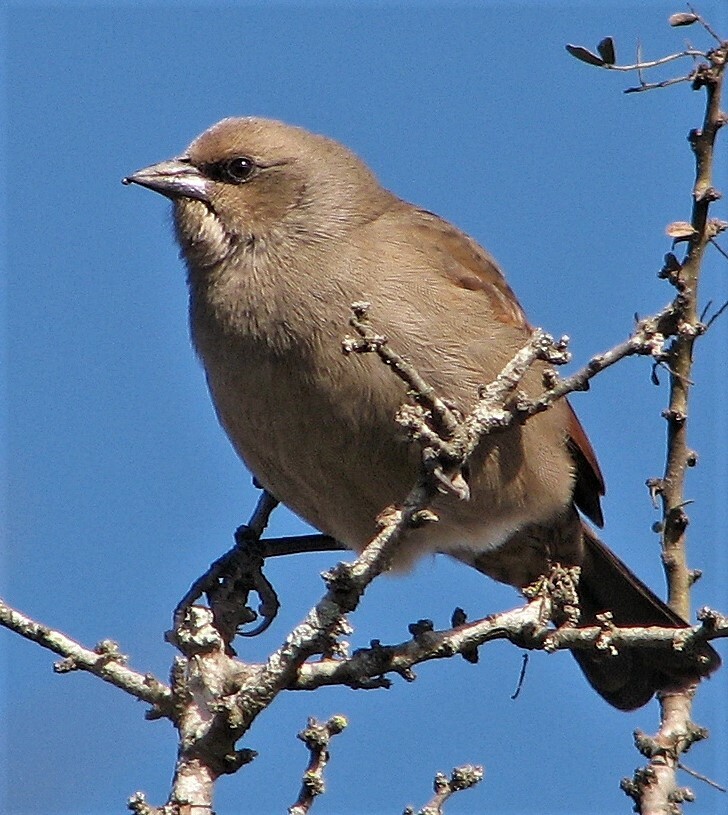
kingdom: Animalia
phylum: Chordata
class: Aves
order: Passeriformes
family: Icteridae
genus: Agelaioides
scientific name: Agelaioides badius
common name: Baywing
